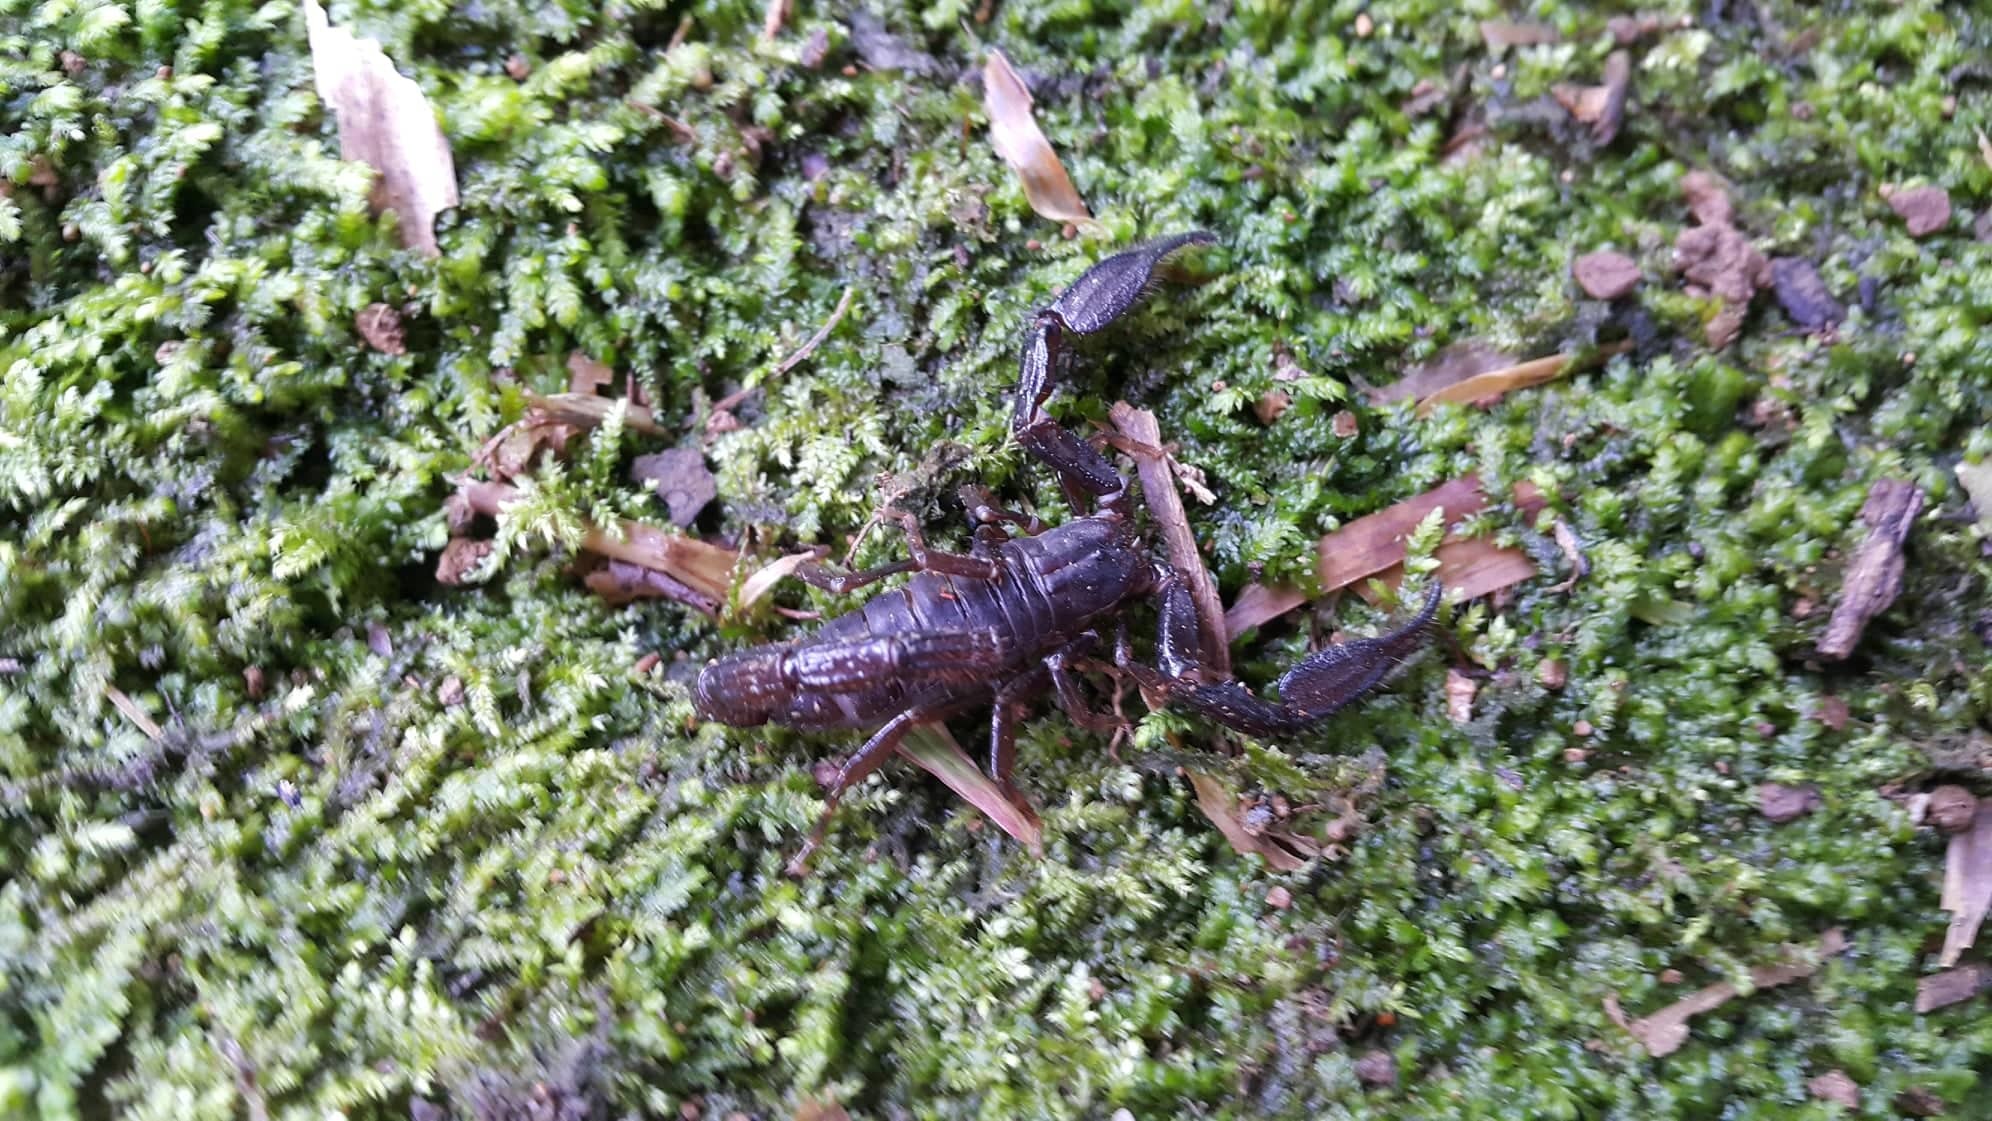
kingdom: Animalia
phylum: Arthropoda
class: Arachnida
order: Scorpiones
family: Diplocentridae
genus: Diplocentrus
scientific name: Diplocentrus maya
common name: Scorpions
